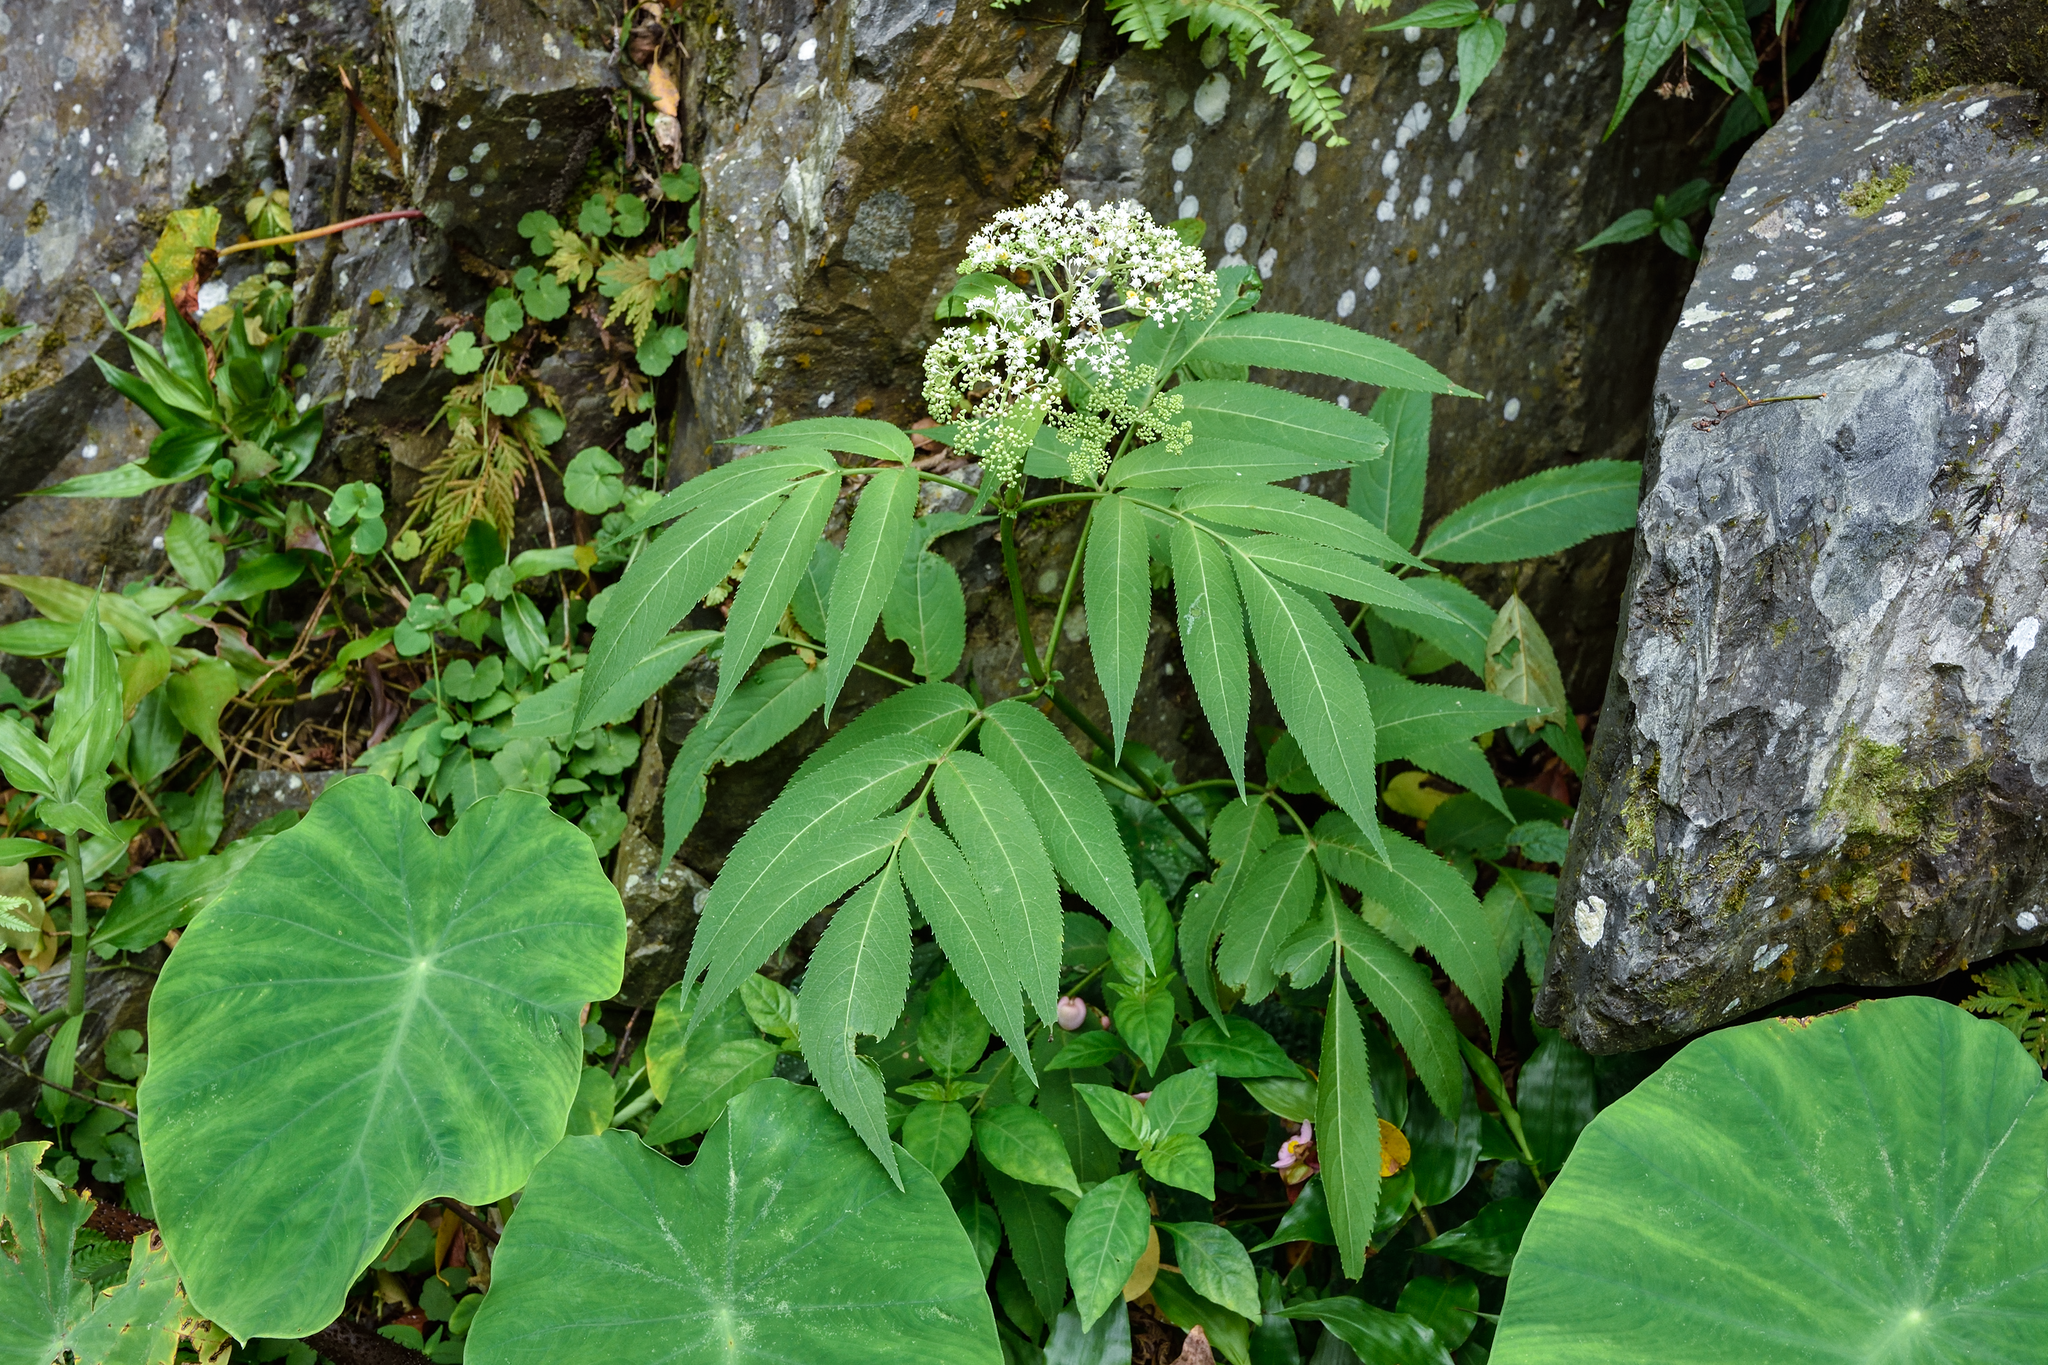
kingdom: Plantae
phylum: Tracheophyta
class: Magnoliopsida
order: Dipsacales
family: Viburnaceae
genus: Sambucus
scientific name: Sambucus javanica
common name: Chinese elder
